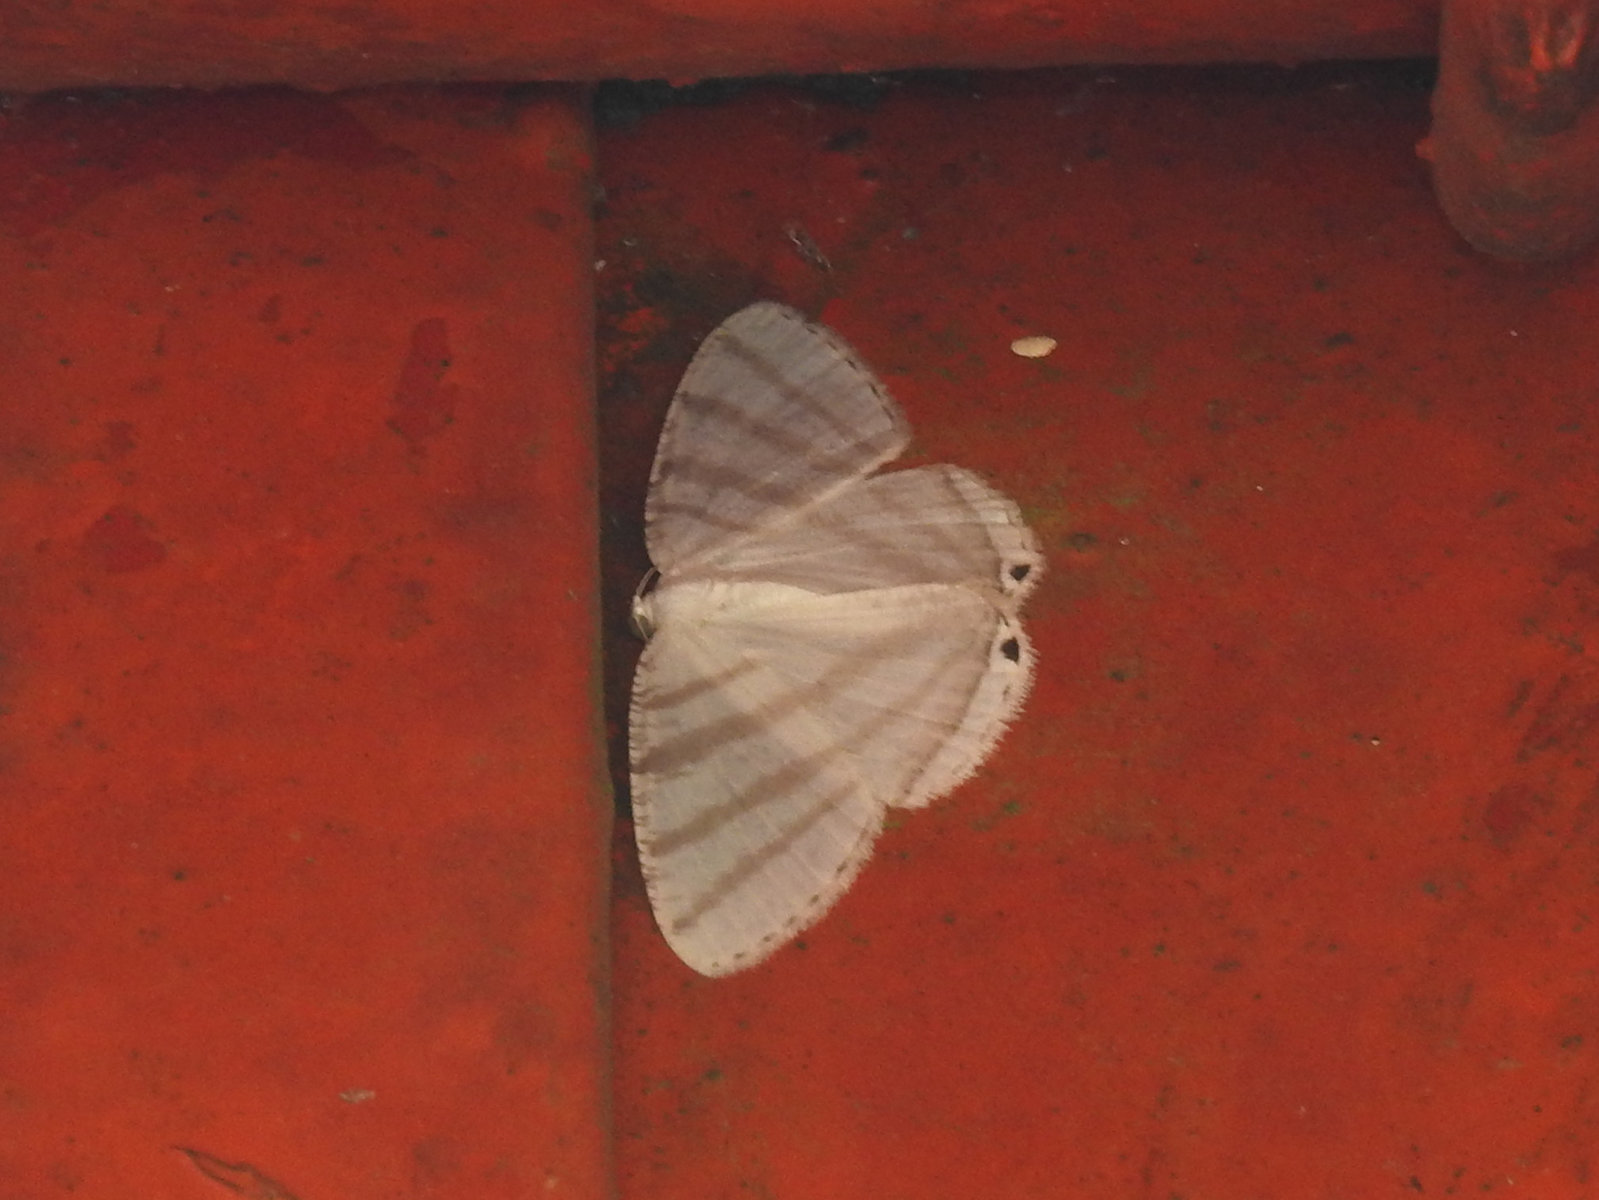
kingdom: Animalia
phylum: Arthropoda
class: Insecta
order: Lepidoptera
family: Geometridae
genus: Micronidia
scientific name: Micronidia unipuncta
